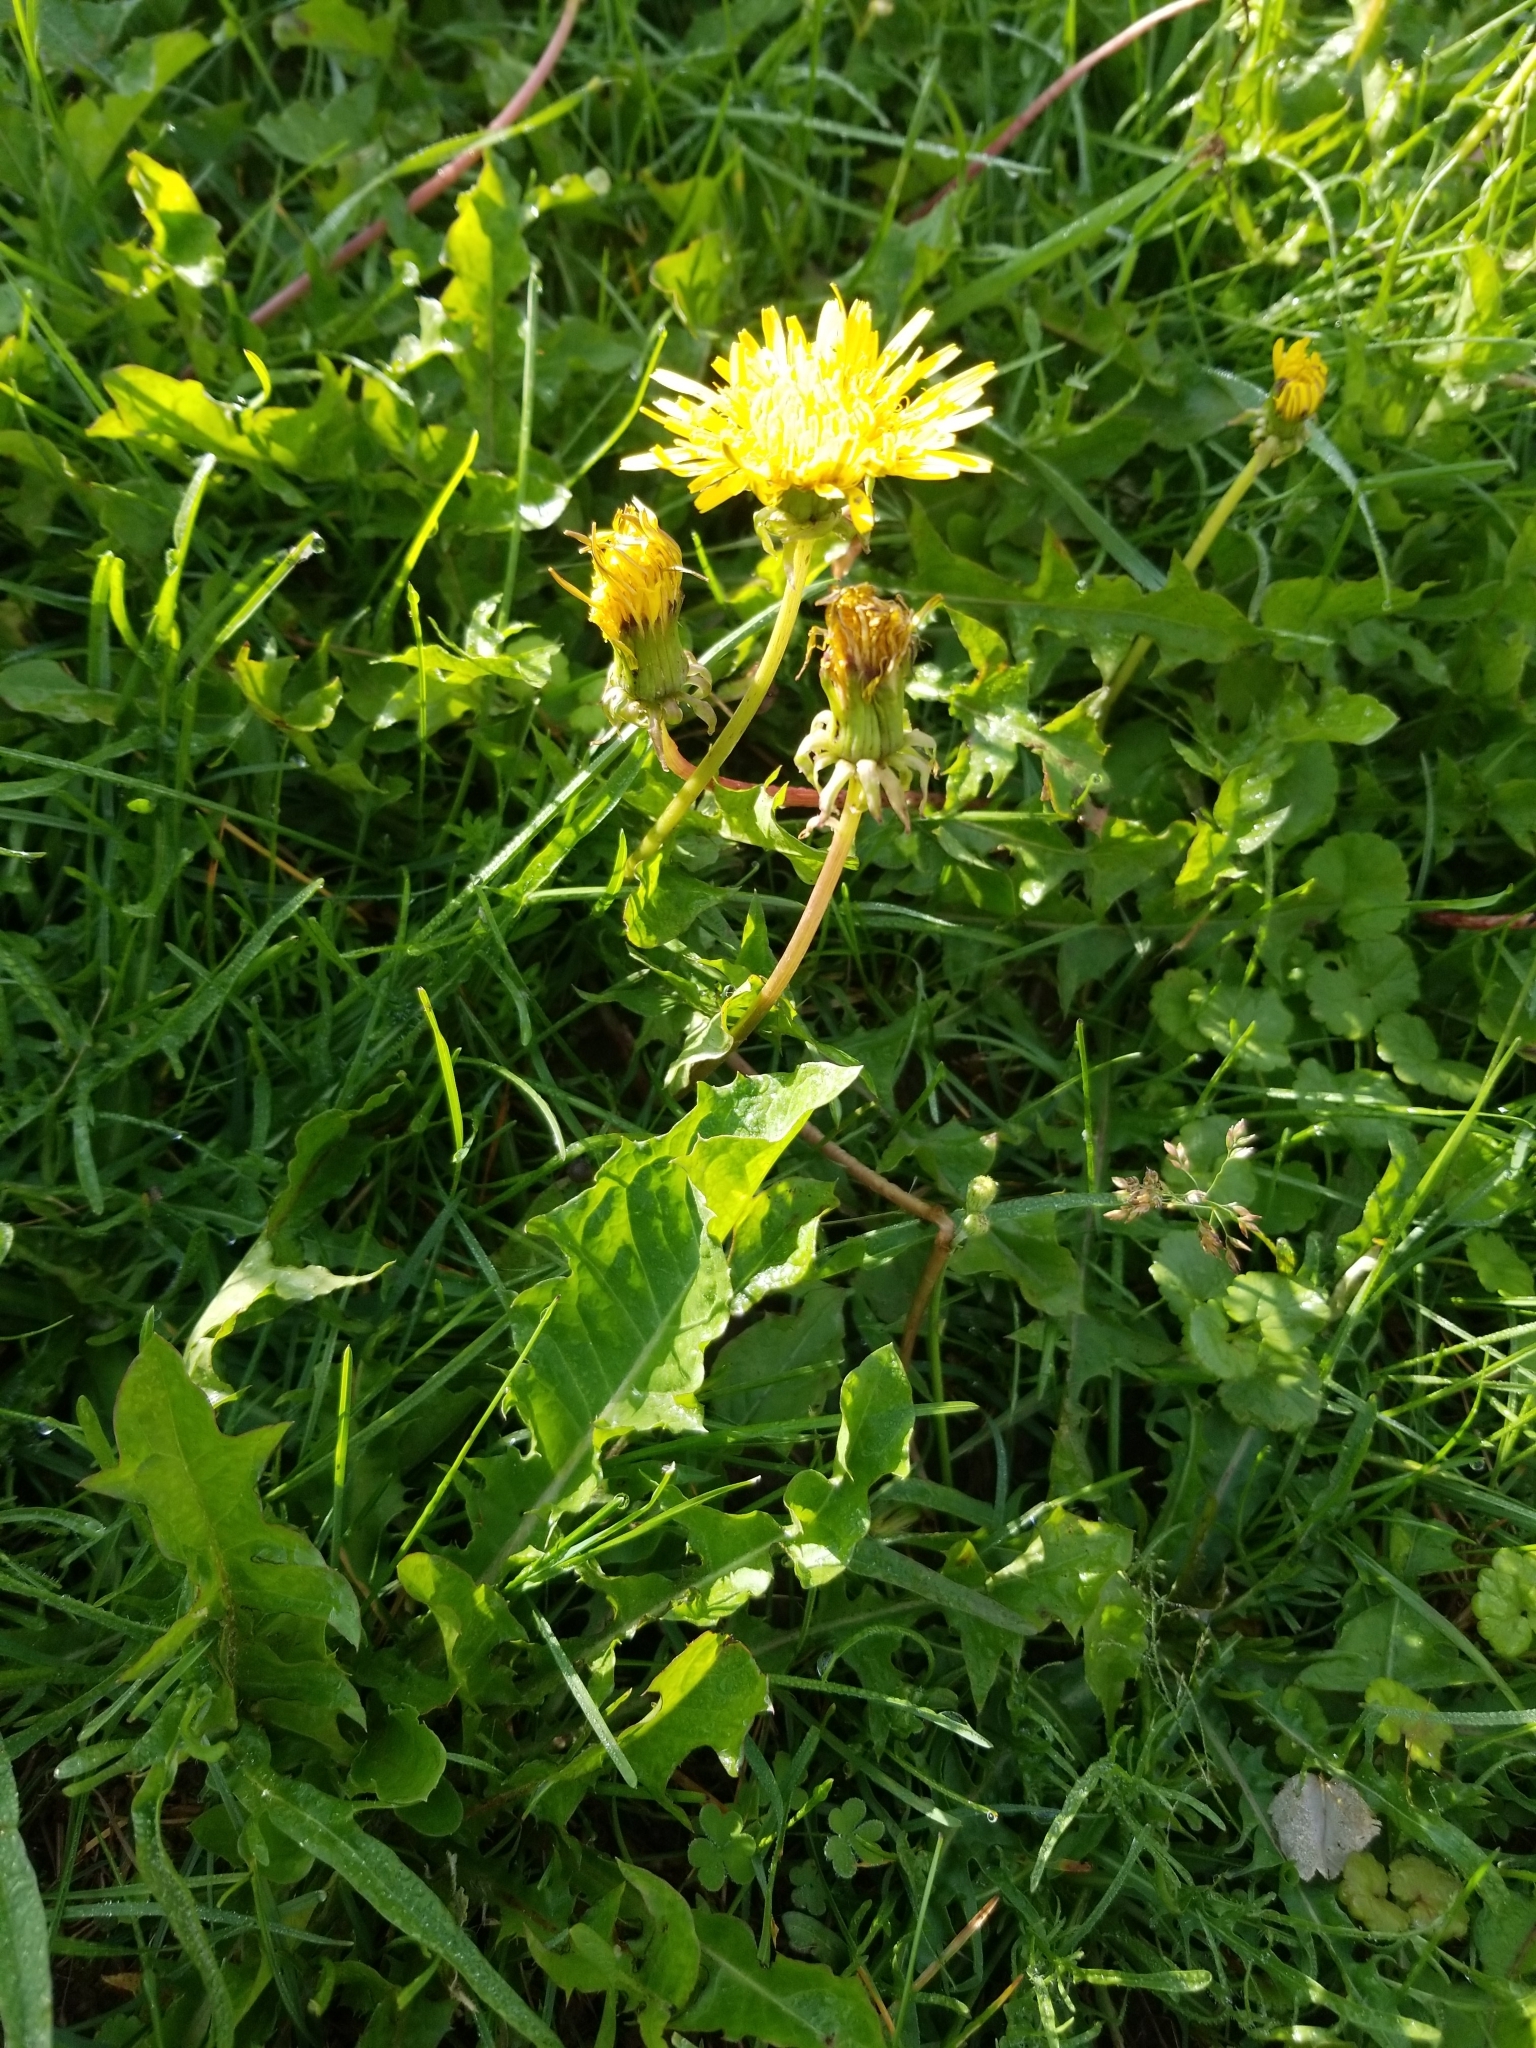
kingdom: Plantae
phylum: Tracheophyta
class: Magnoliopsida
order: Asterales
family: Asteraceae
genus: Taraxacum
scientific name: Taraxacum officinale
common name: Common dandelion
